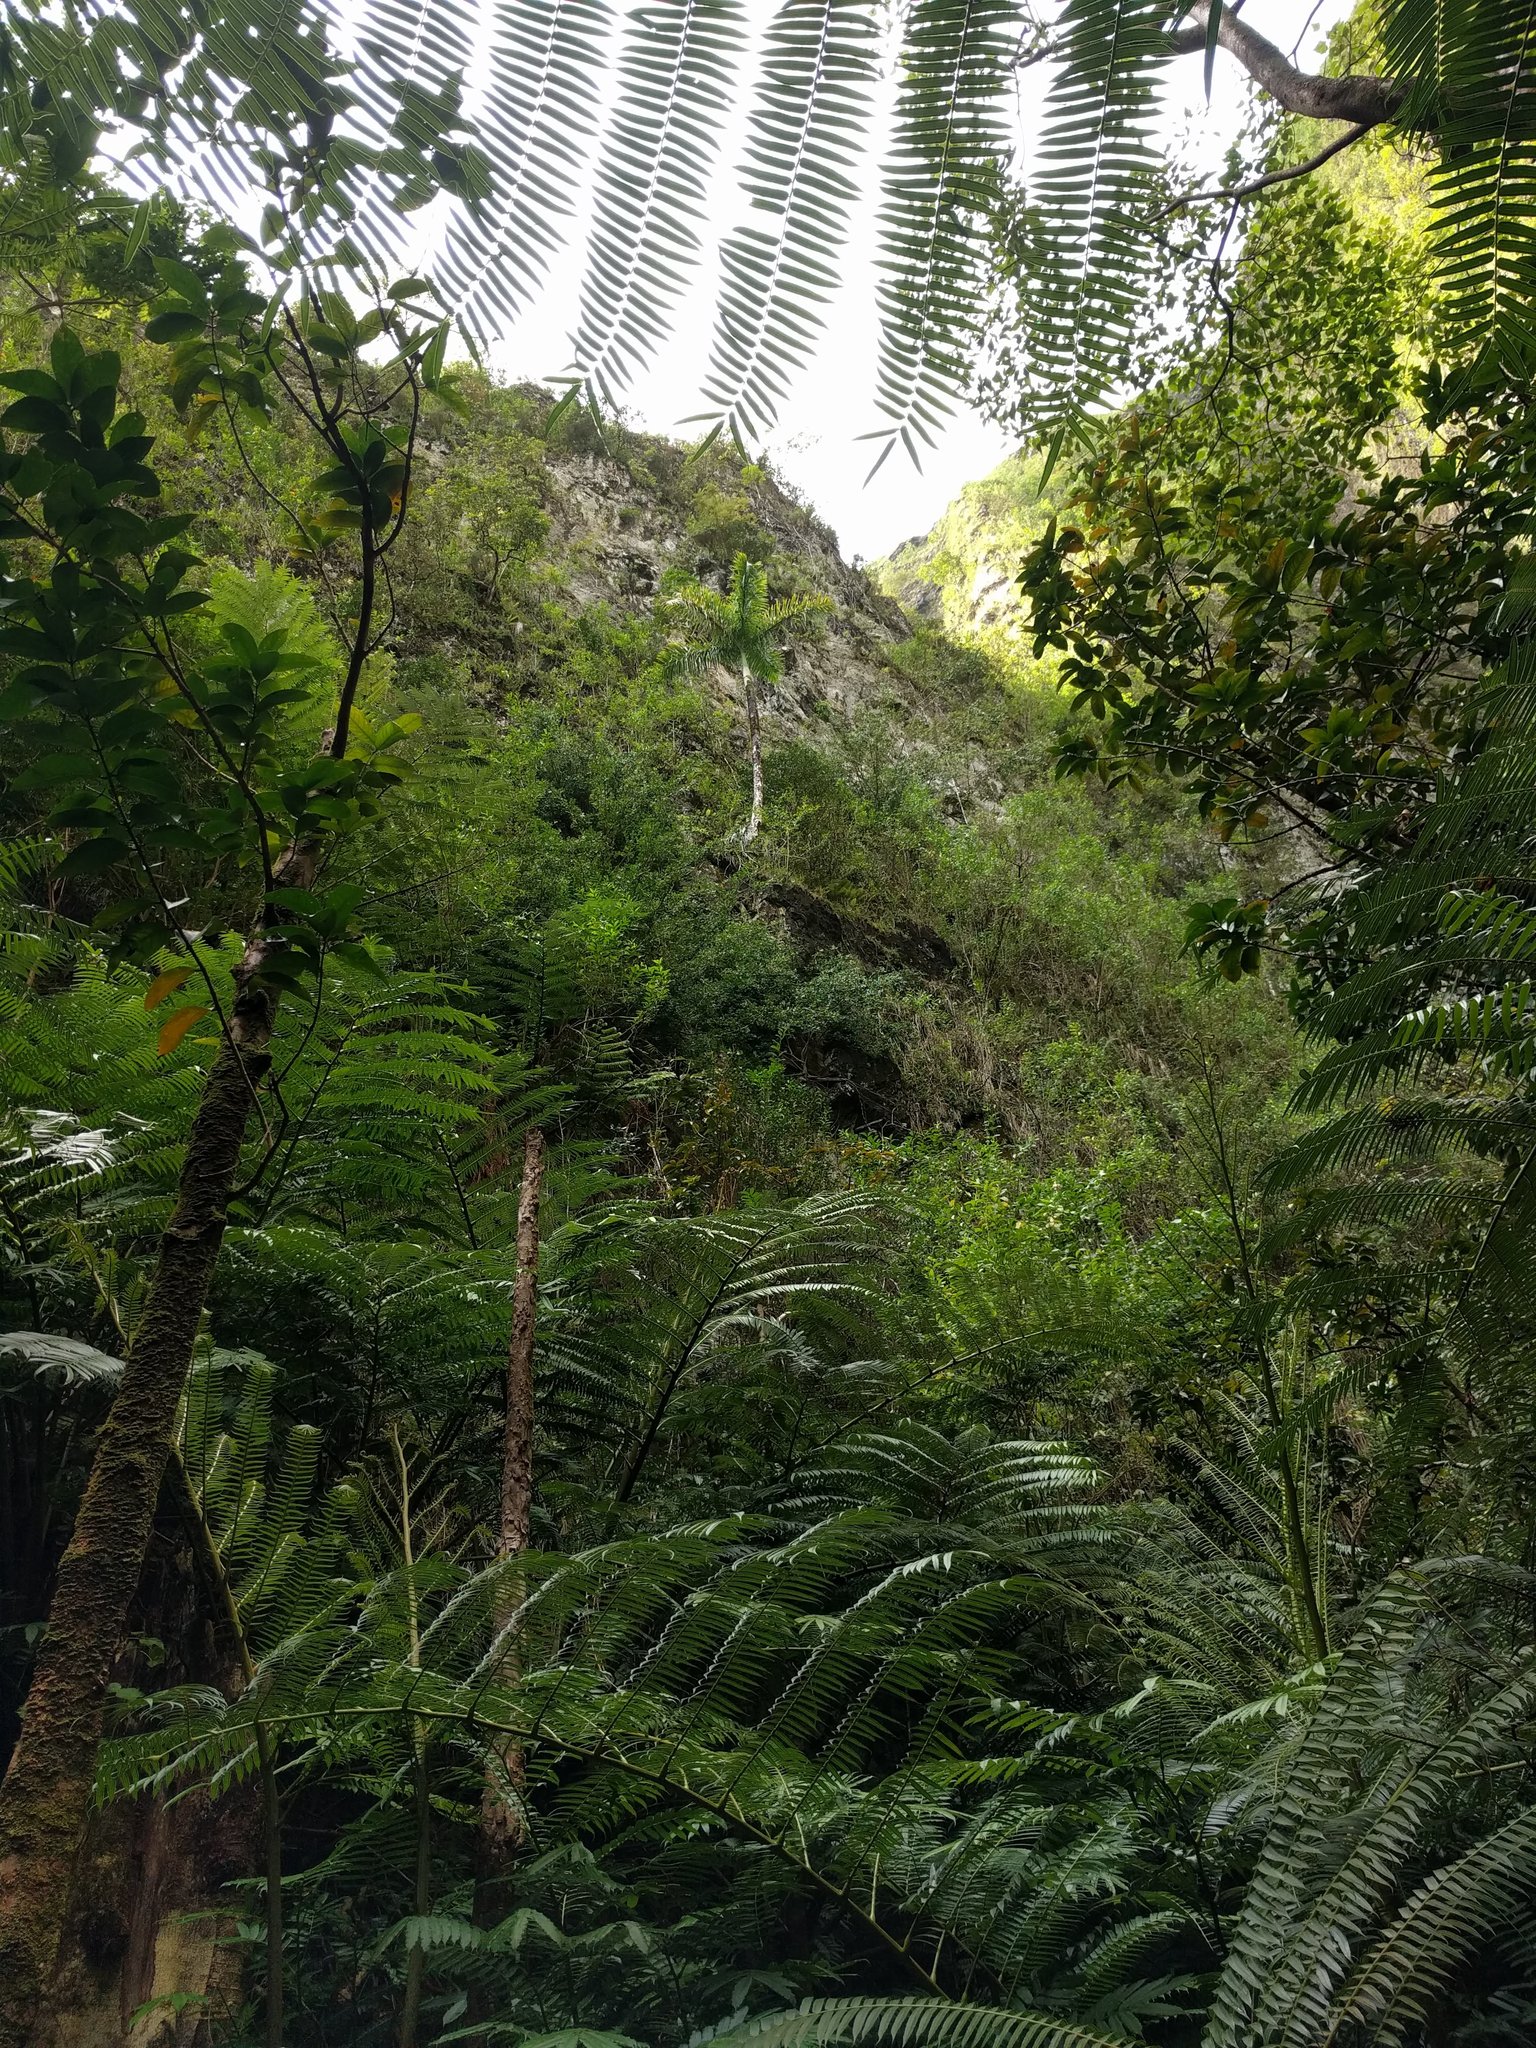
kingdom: Plantae
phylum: Tracheophyta
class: Polypodiopsida
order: Marattiales
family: Marattiaceae
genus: Angiopteris
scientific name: Angiopteris evecta
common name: Mule's-foot fern
